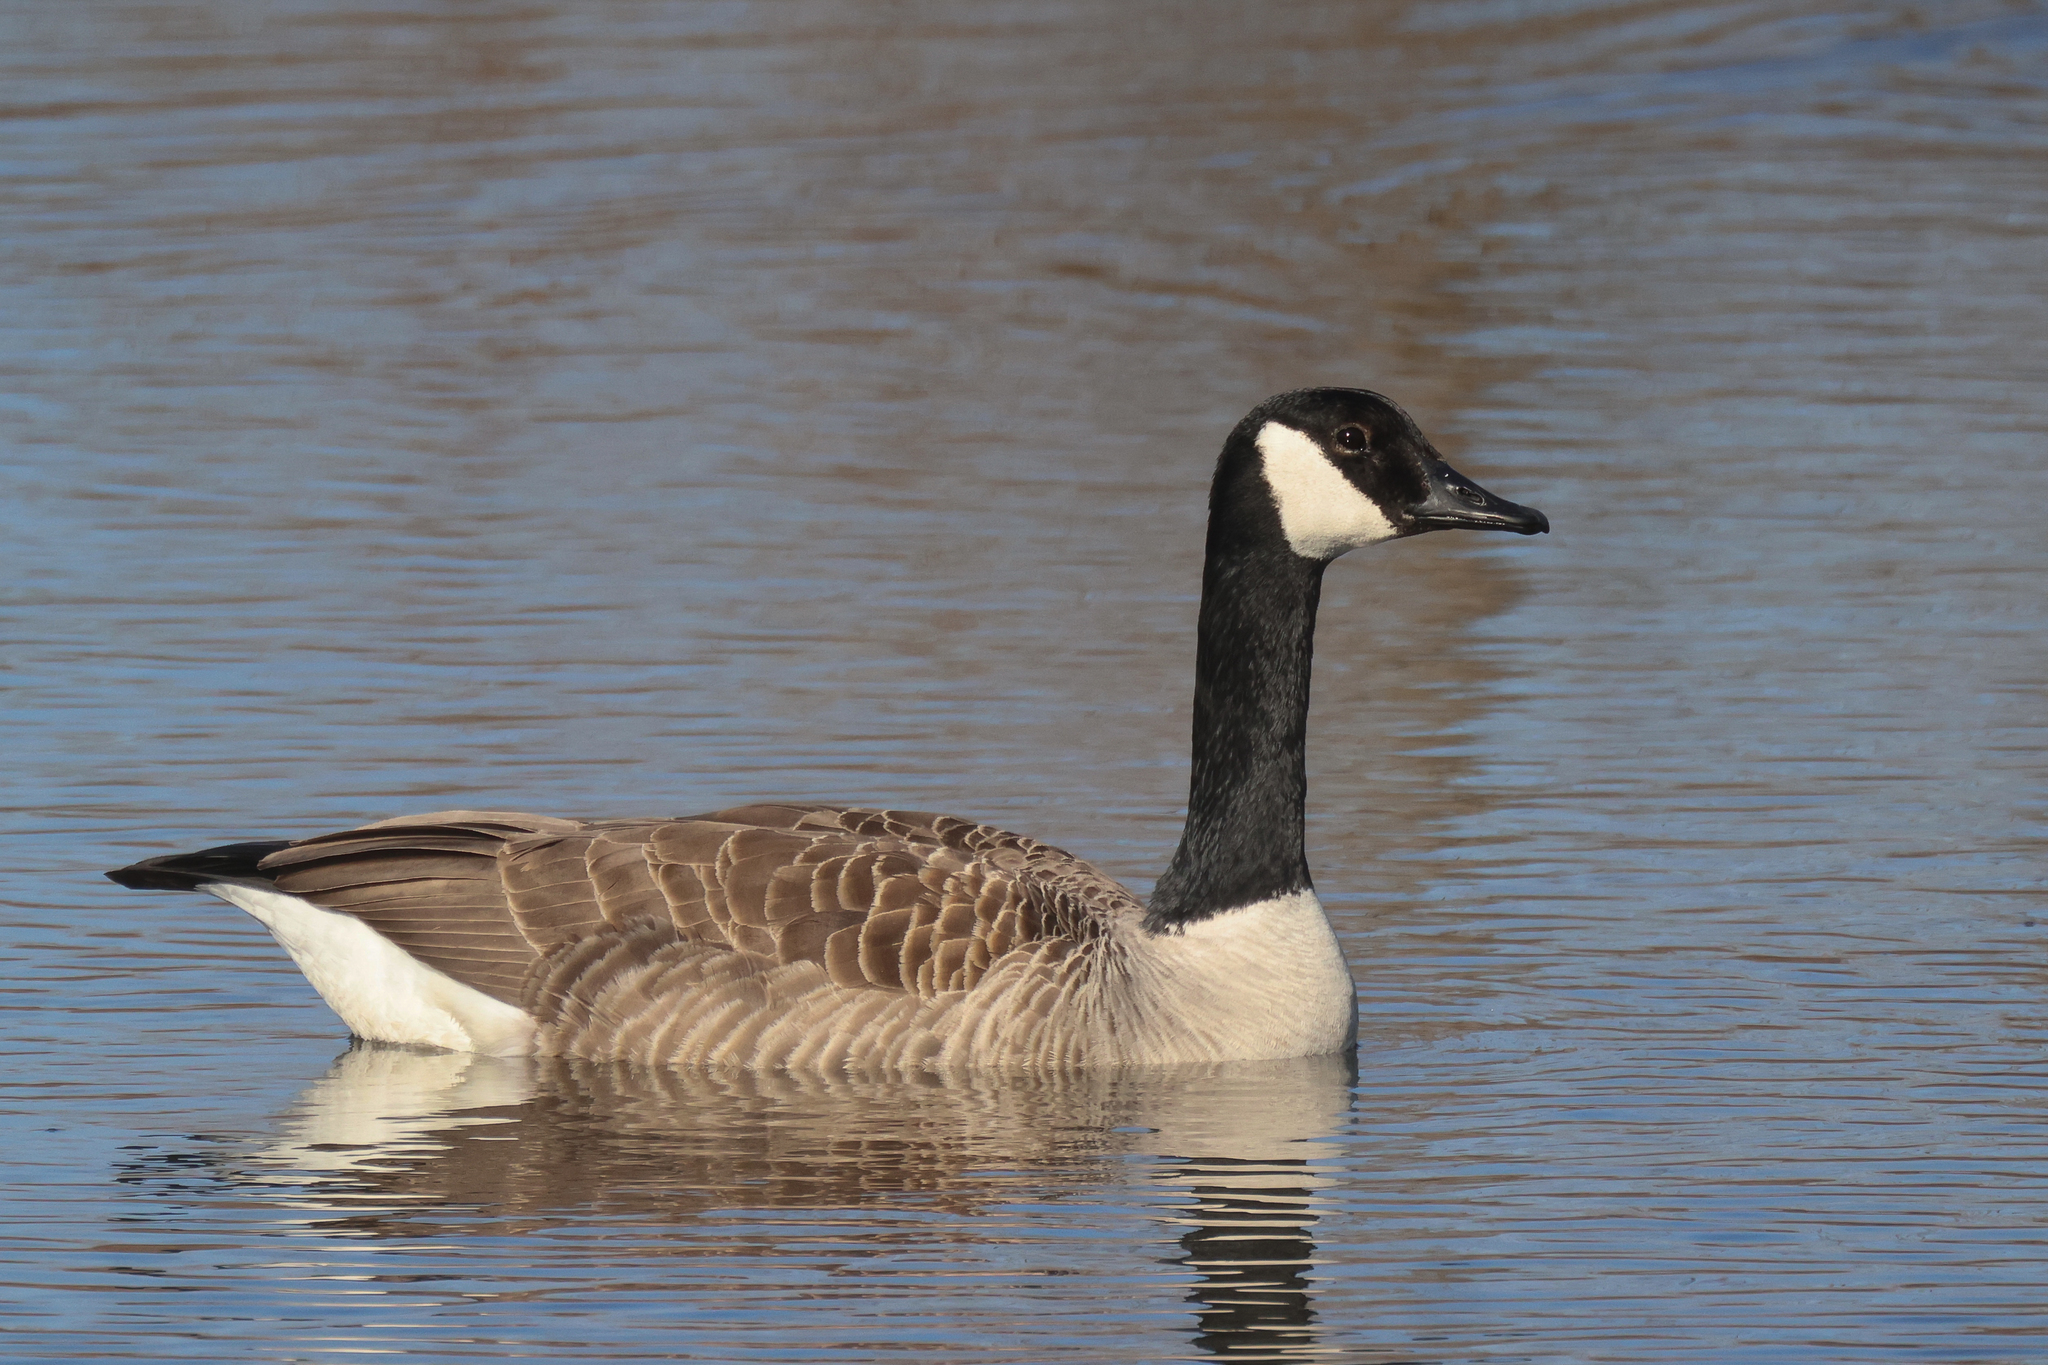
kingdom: Animalia
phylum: Chordata
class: Aves
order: Anseriformes
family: Anatidae
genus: Branta
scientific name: Branta canadensis
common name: Canada goose
